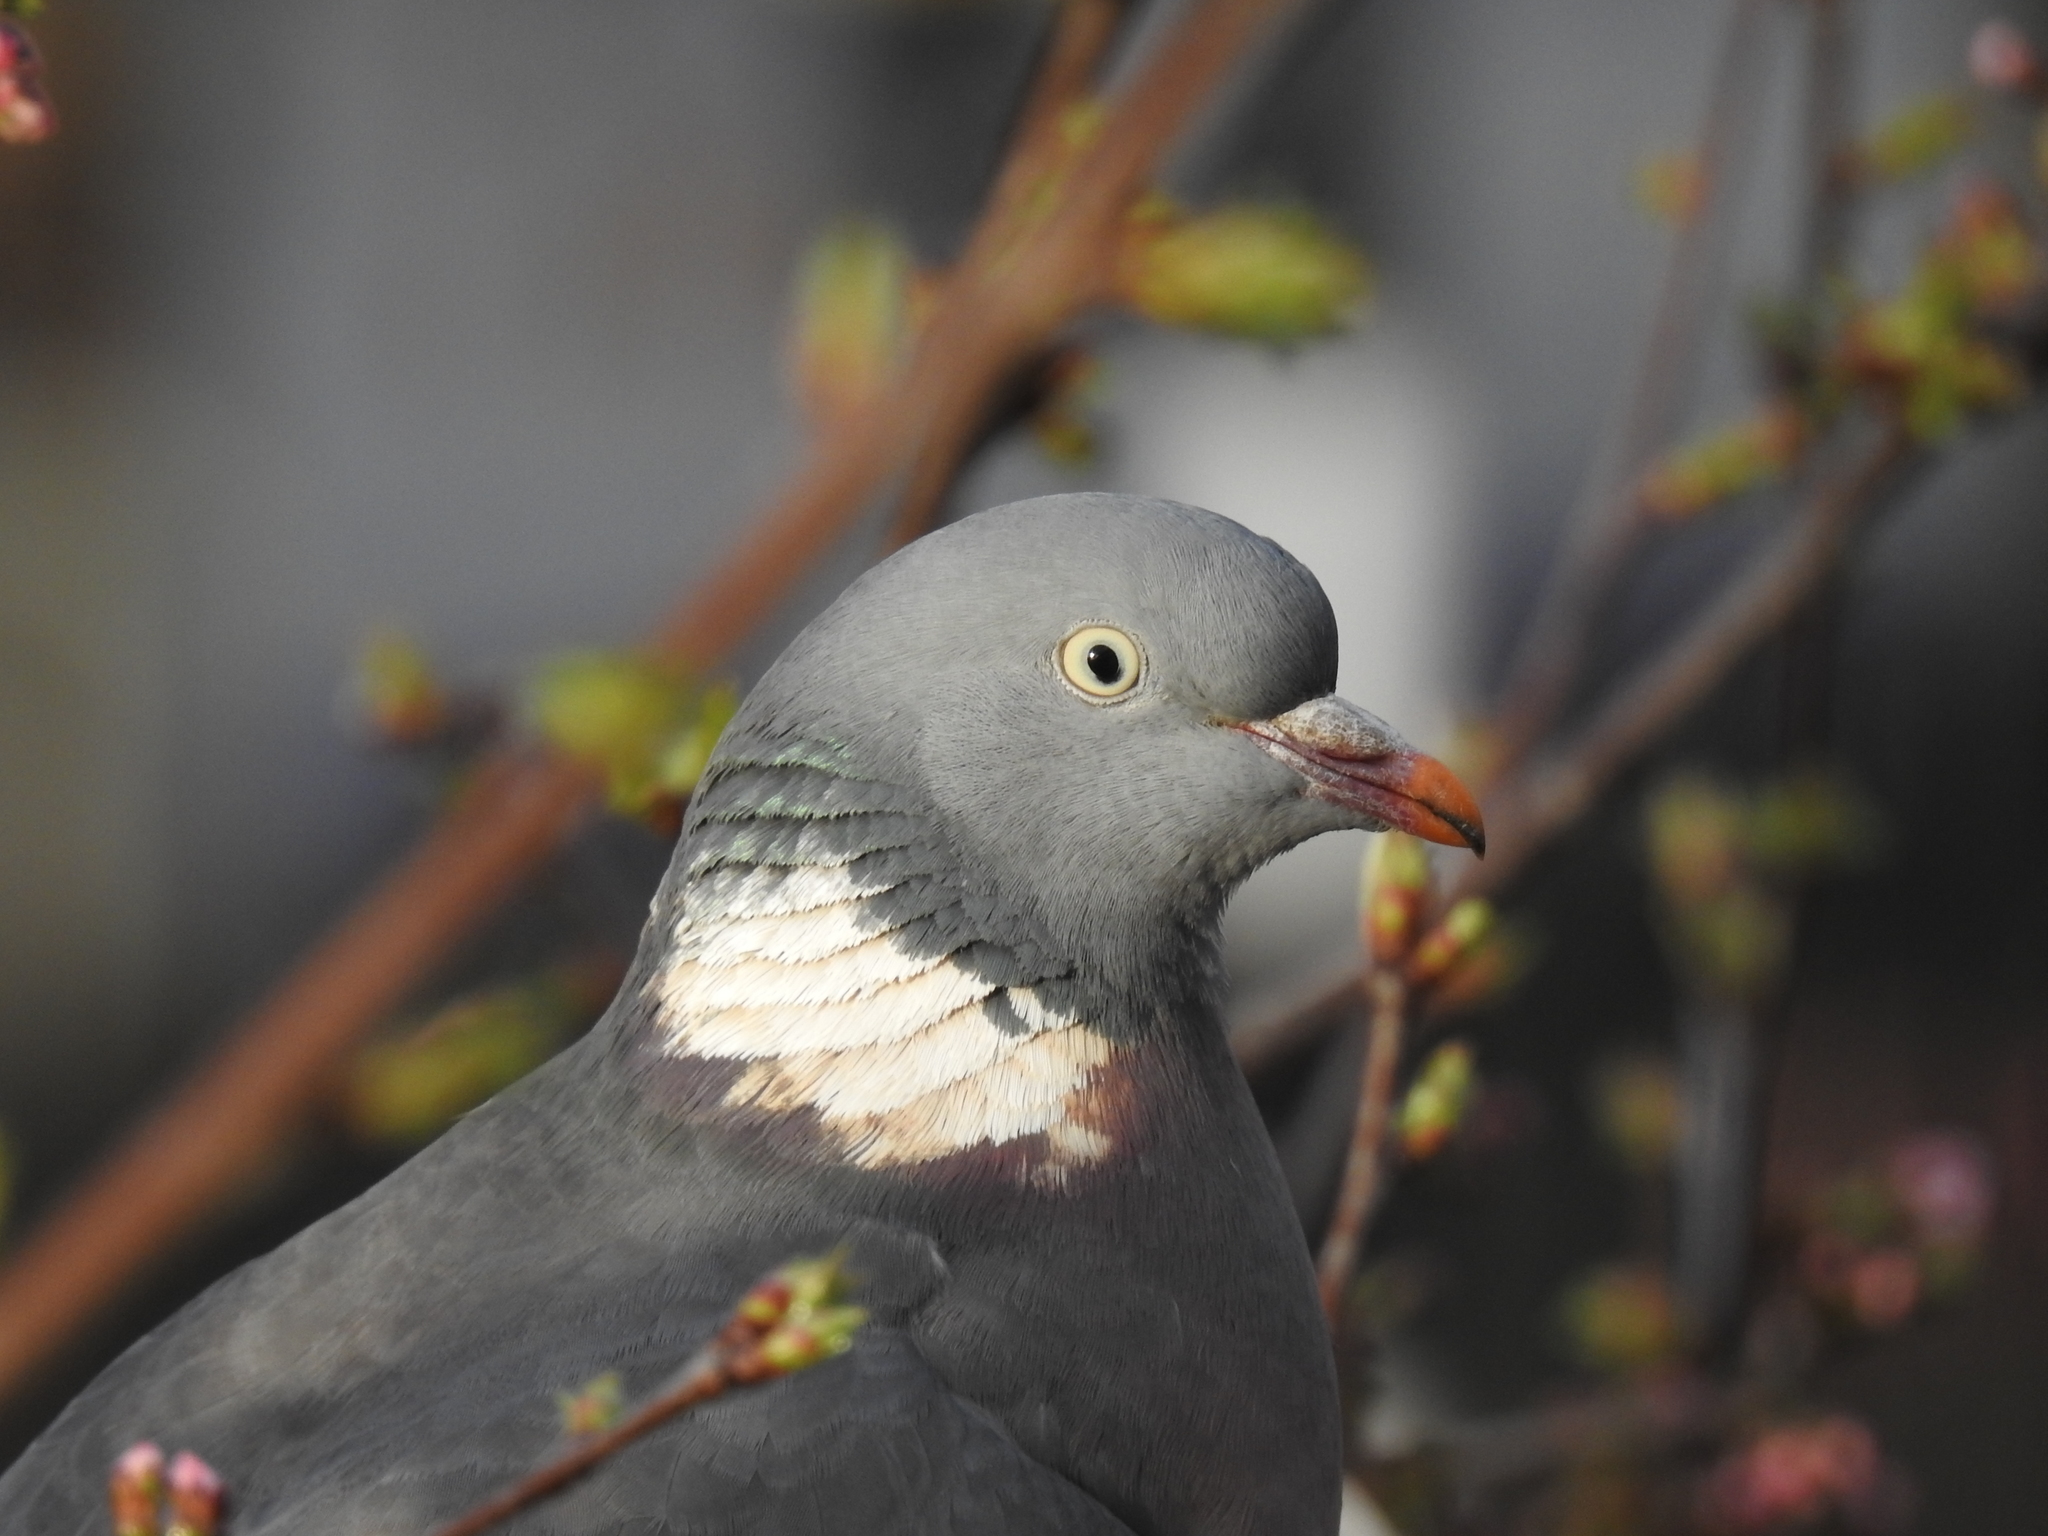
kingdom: Animalia
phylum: Chordata
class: Aves
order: Columbiformes
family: Columbidae
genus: Columba
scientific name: Columba palumbus
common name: Common wood pigeon
